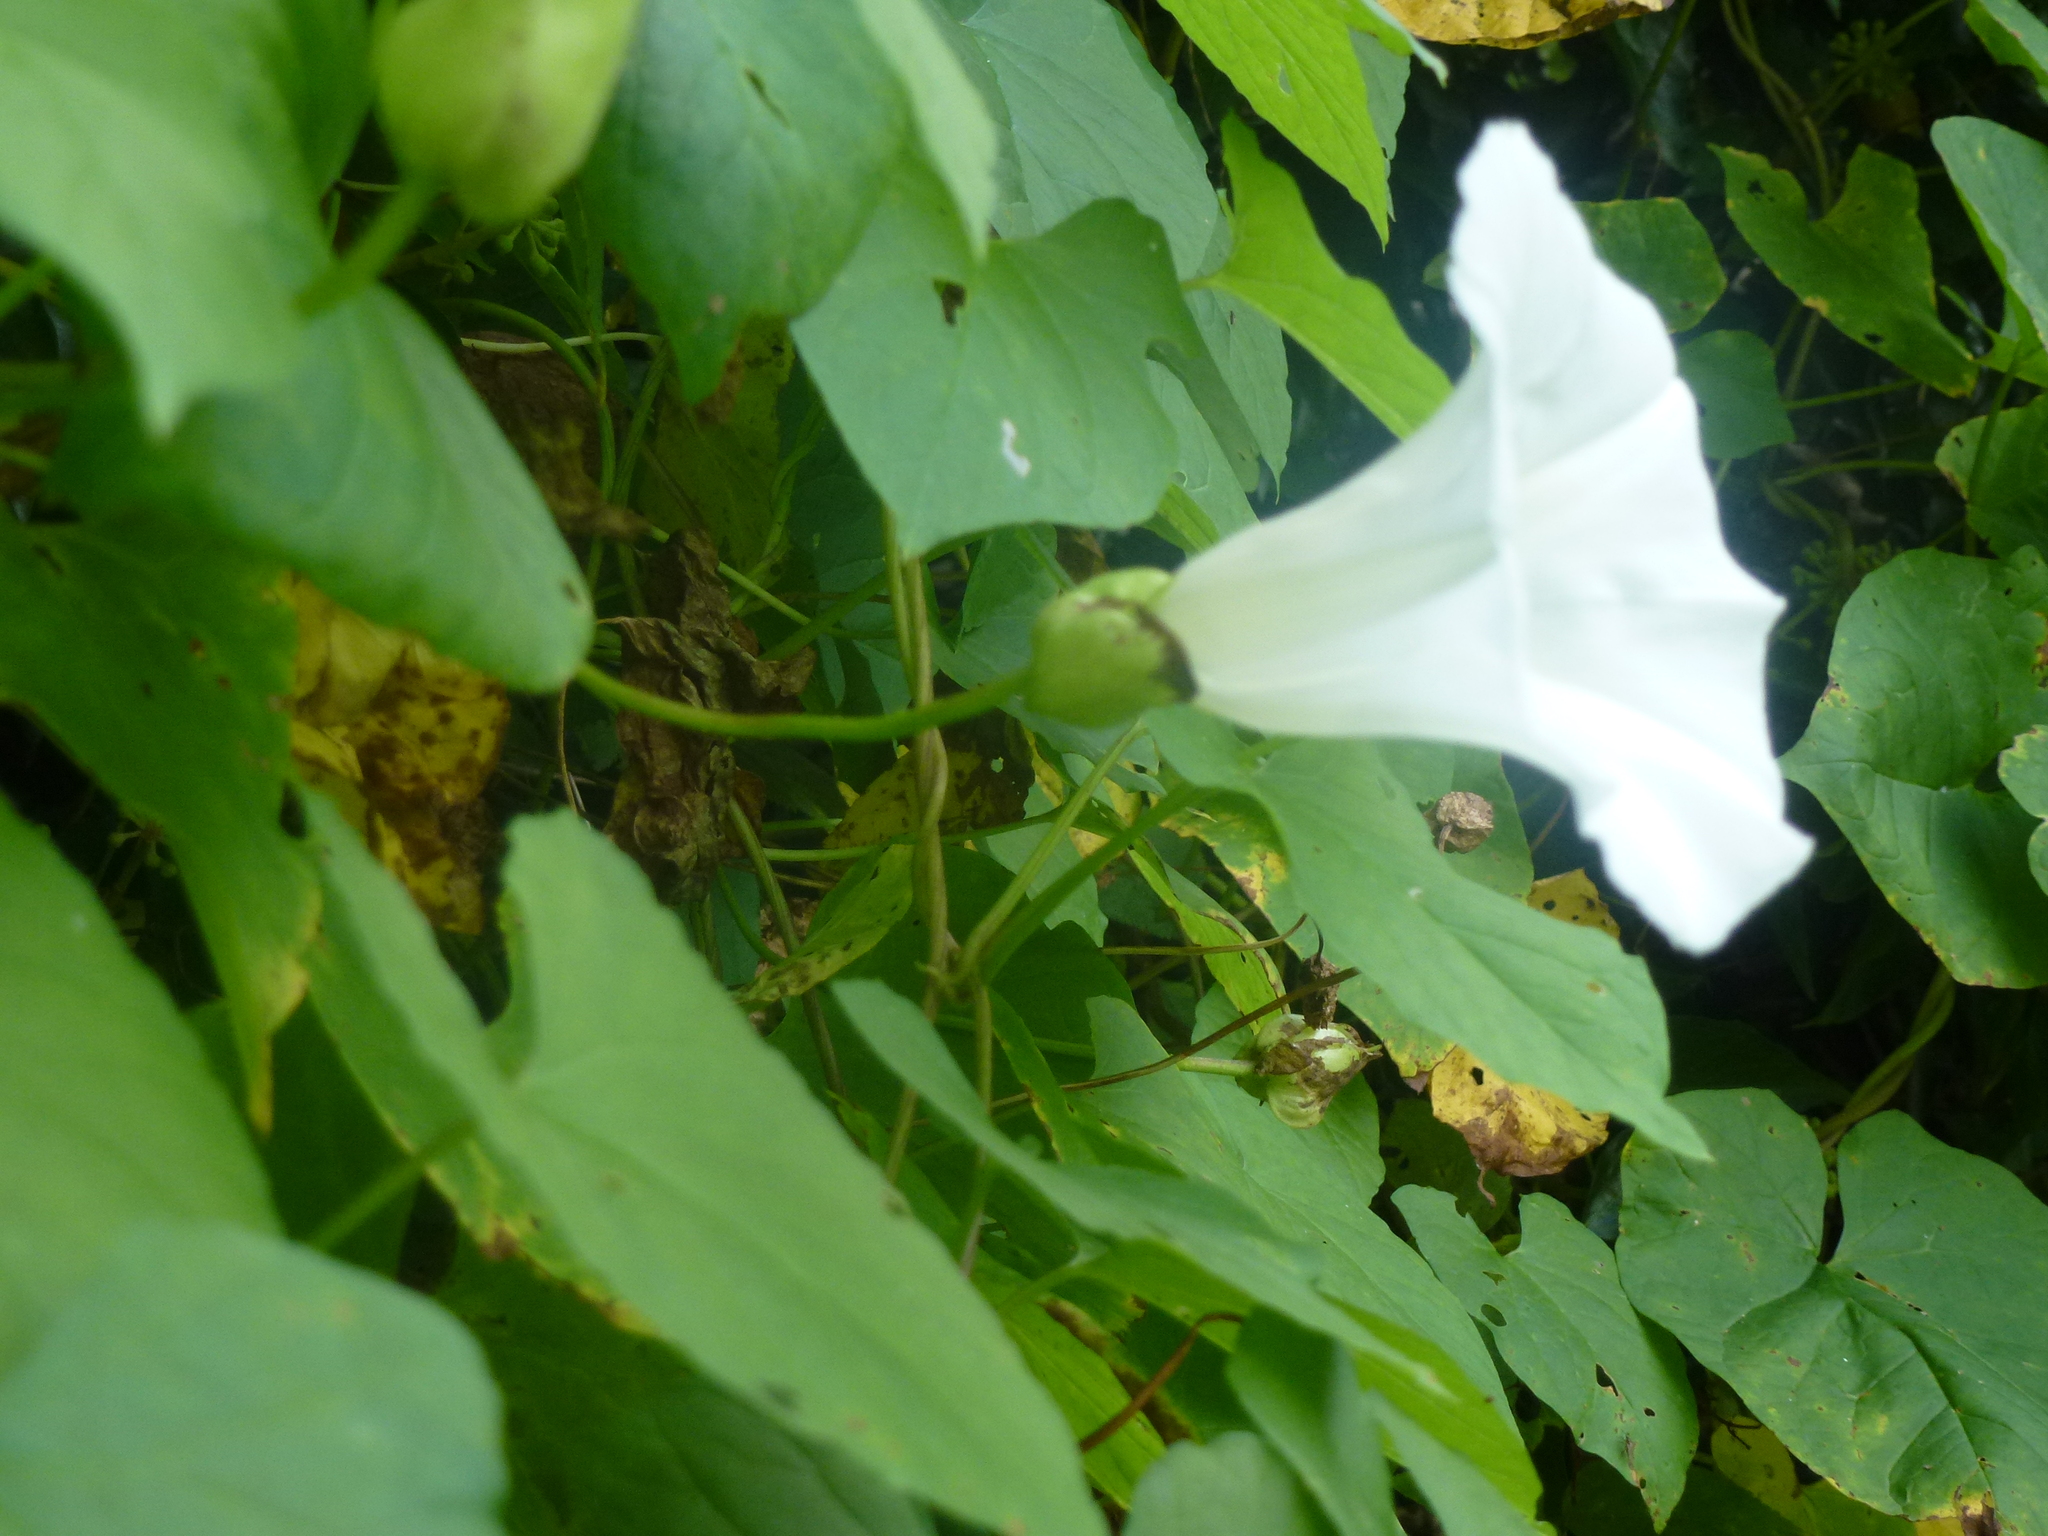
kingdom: Plantae
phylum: Tracheophyta
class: Magnoliopsida
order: Solanales
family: Convolvulaceae
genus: Calystegia
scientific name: Calystegia silvatica
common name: Large bindweed
